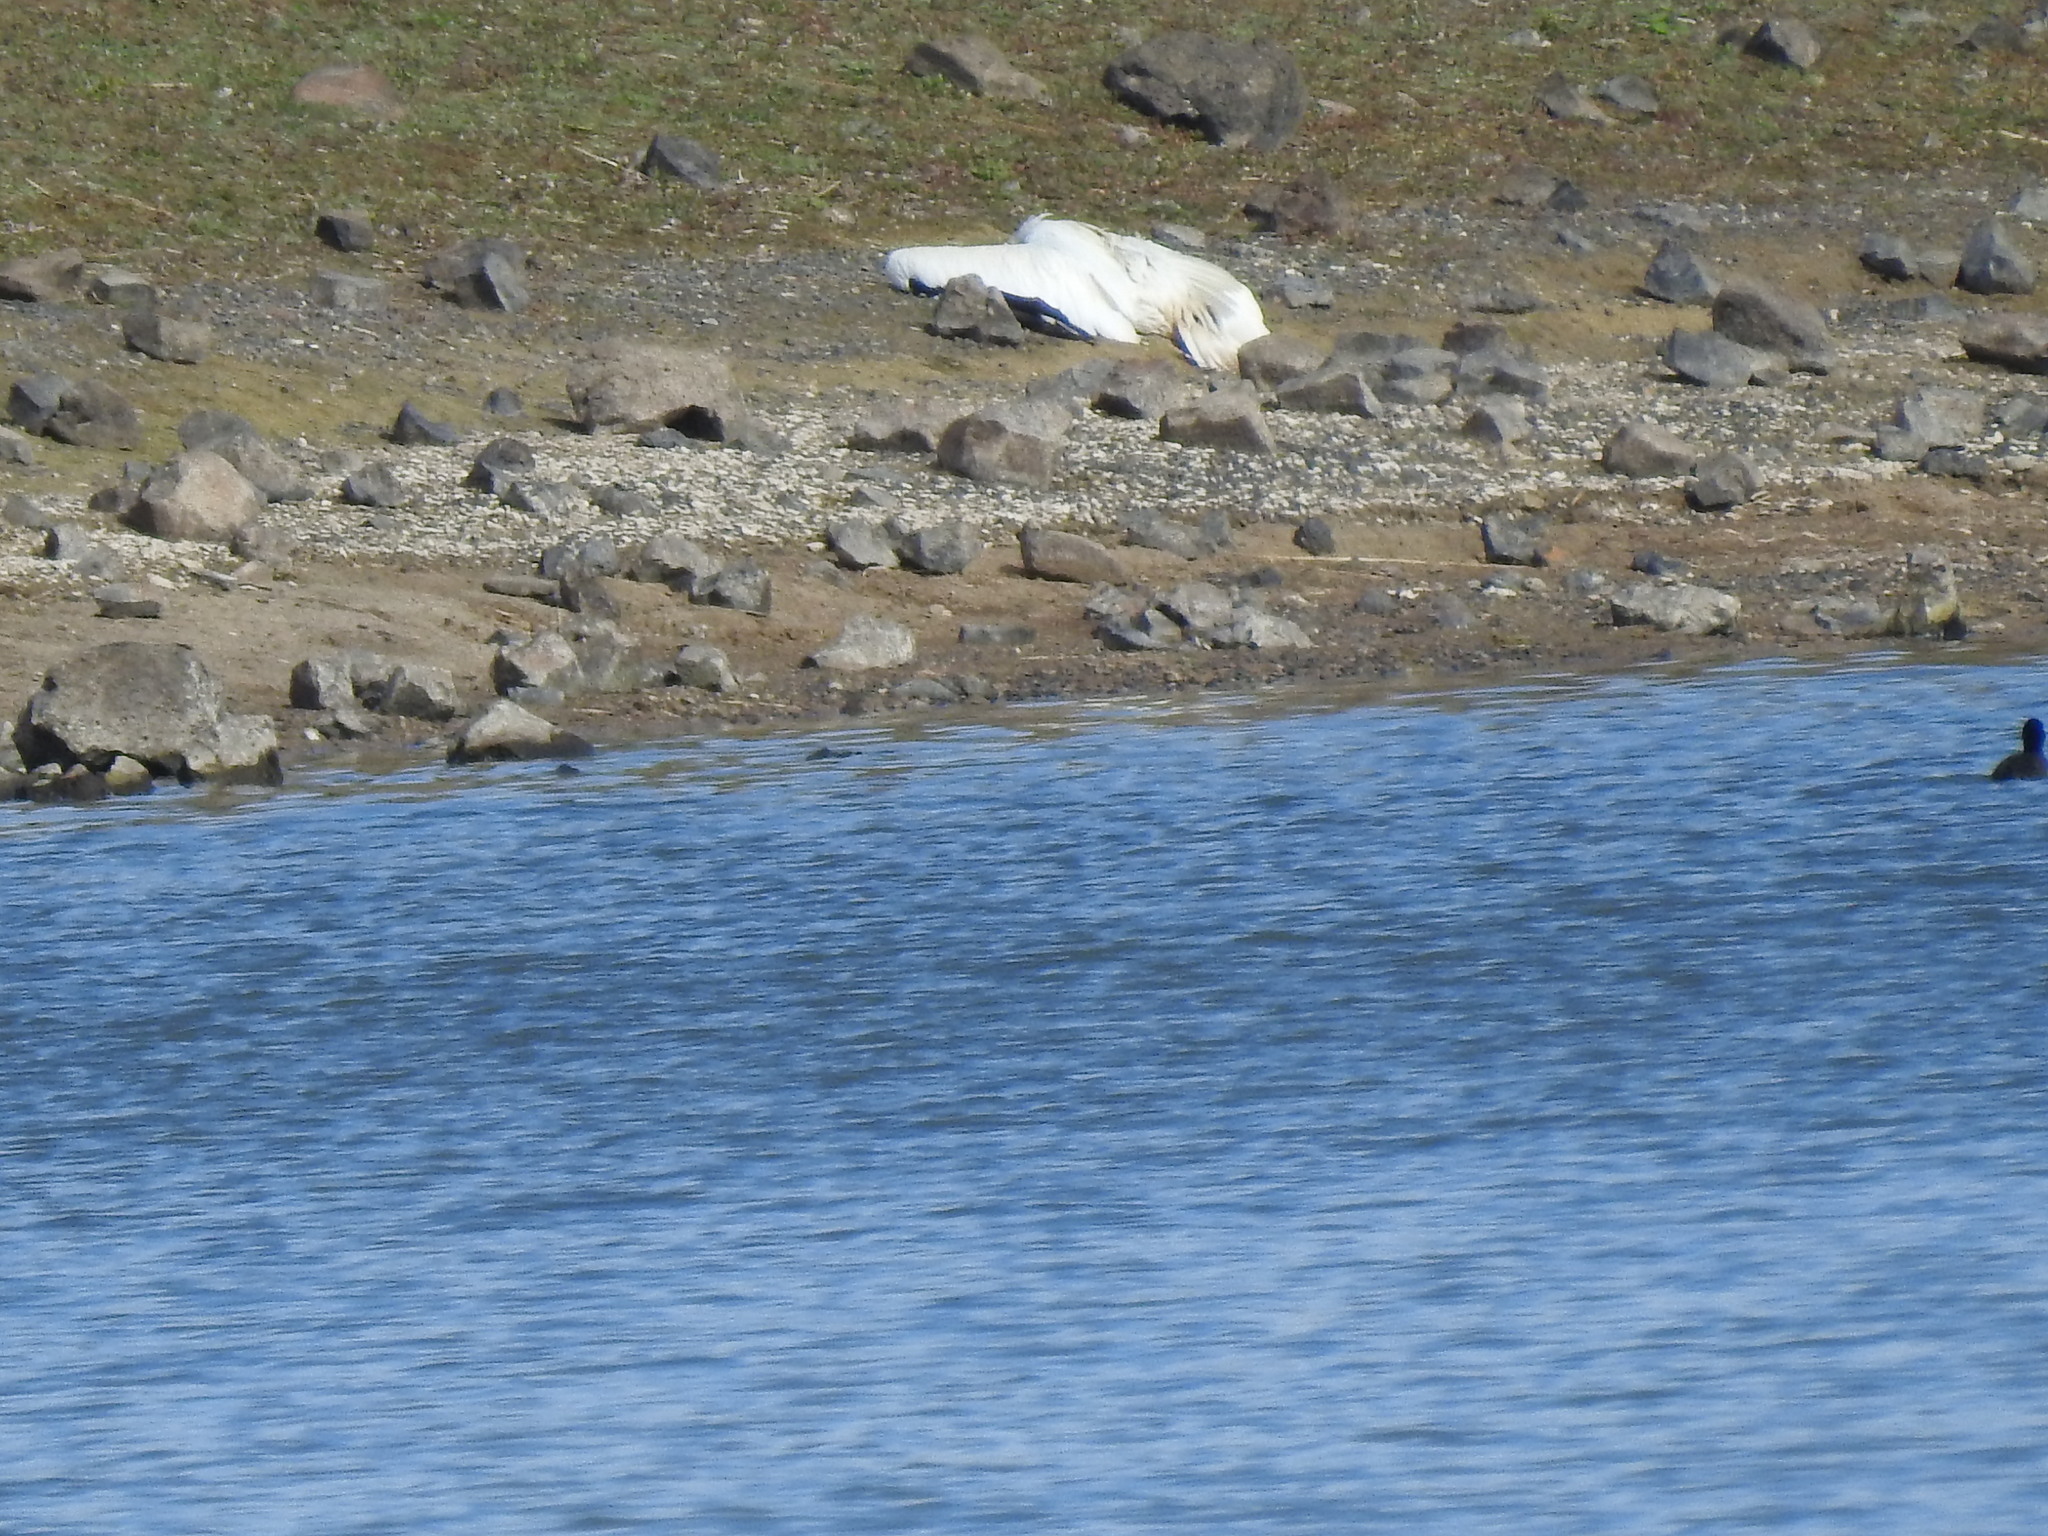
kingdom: Animalia
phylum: Chordata
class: Aves
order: Pelecaniformes
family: Pelecanidae
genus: Pelecanus
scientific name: Pelecanus erythrorhynchos
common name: American white pelican
